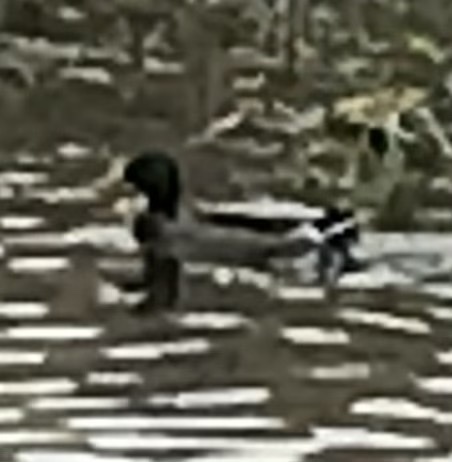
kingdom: Animalia
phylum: Chordata
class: Aves
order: Anseriformes
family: Anatidae
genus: Anas
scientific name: Anas platyrhynchos
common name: Mallard
